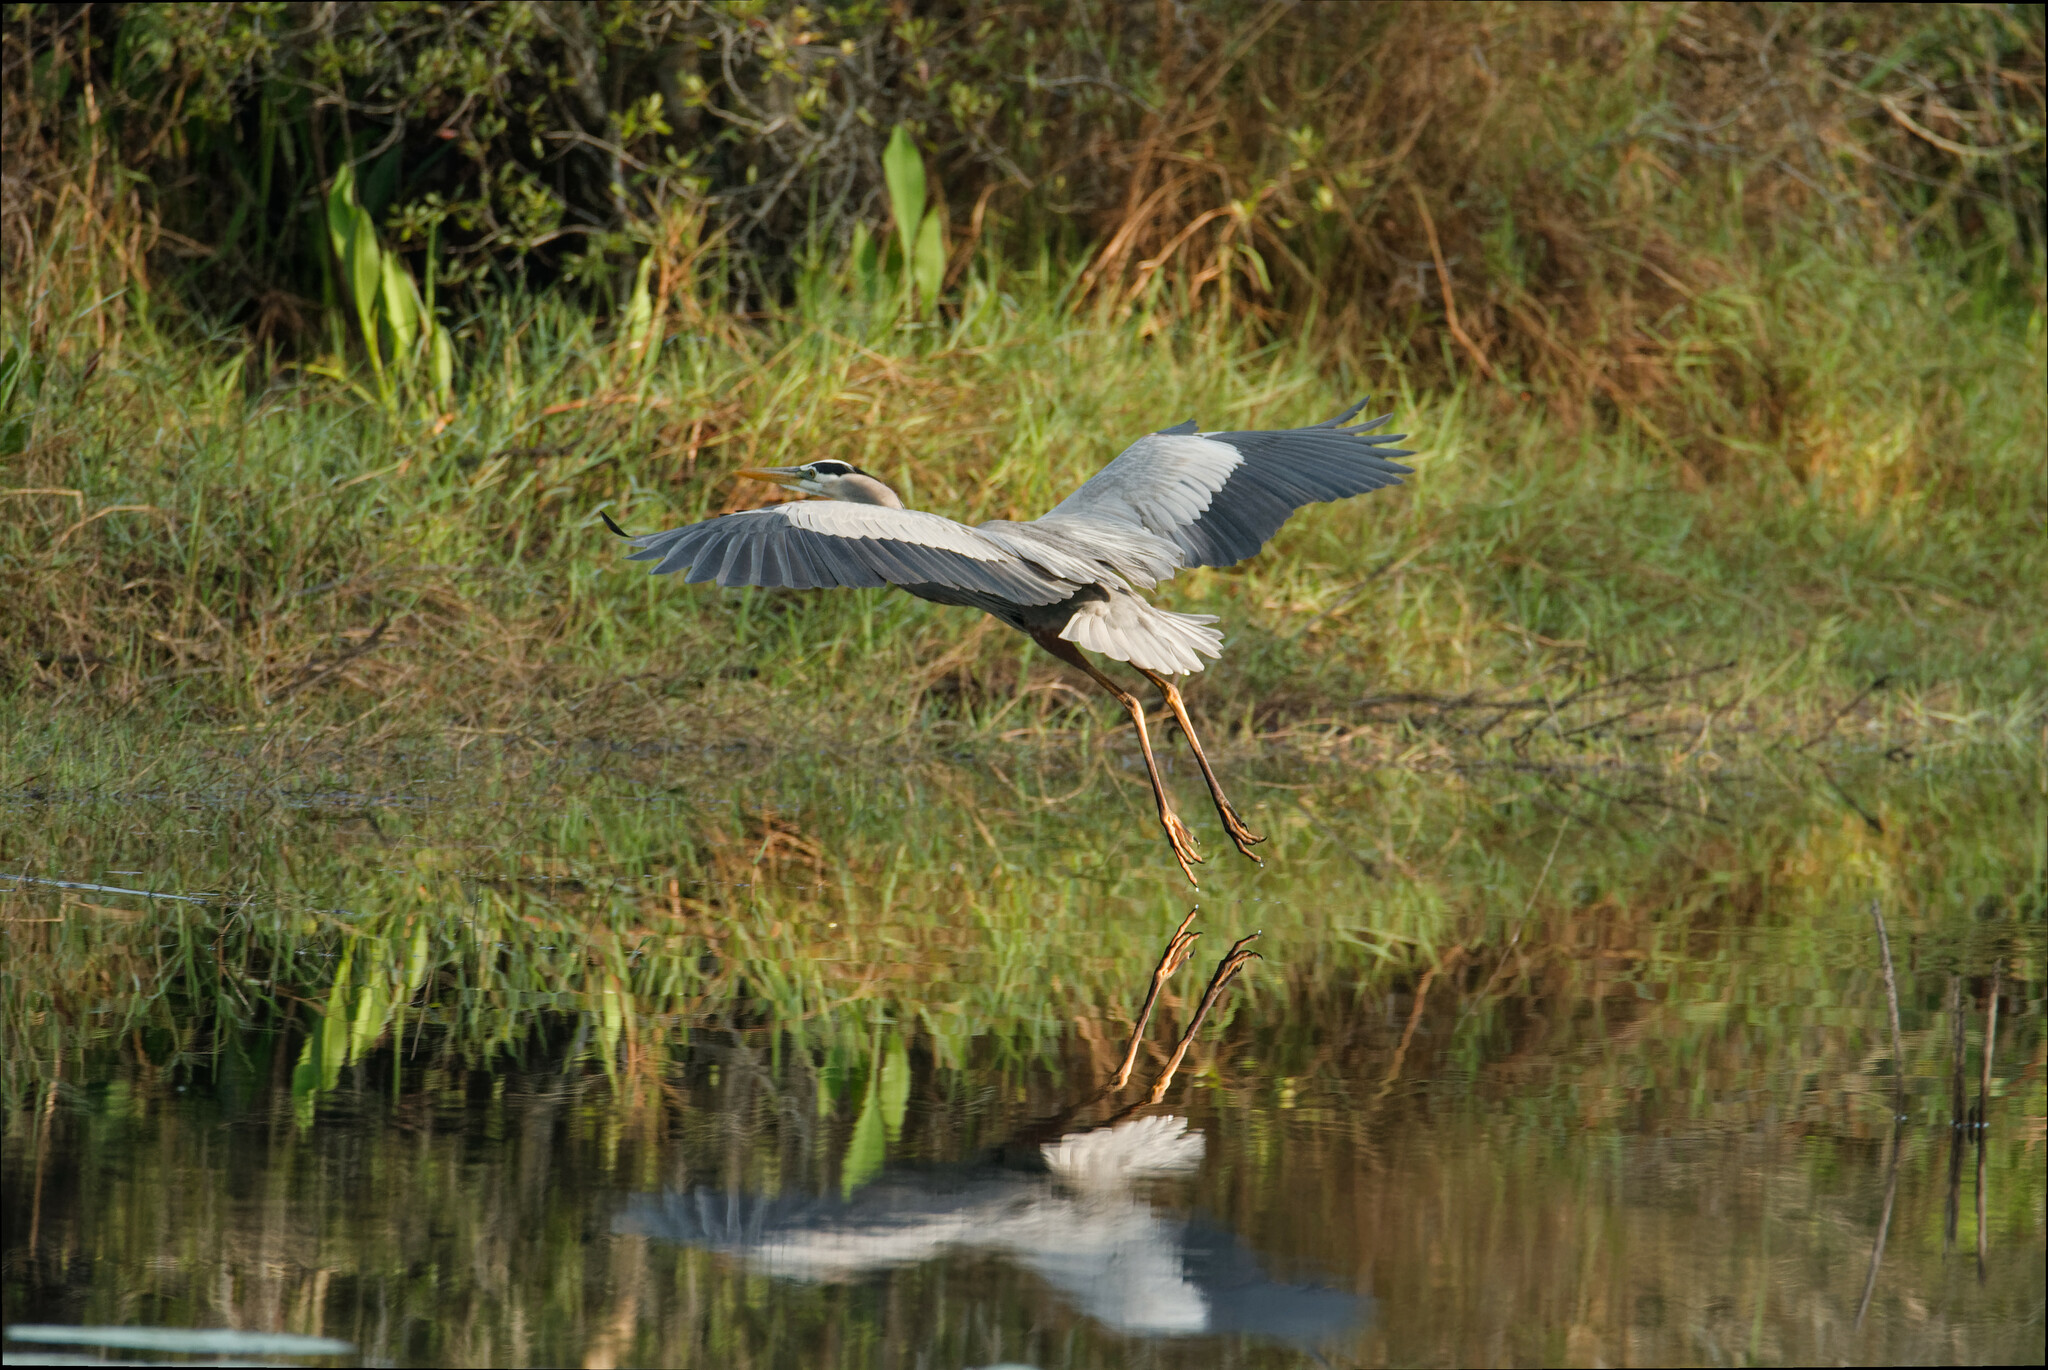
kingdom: Animalia
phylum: Chordata
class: Aves
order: Pelecaniformes
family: Ardeidae
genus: Ardea
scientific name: Ardea herodias
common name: Great blue heron
